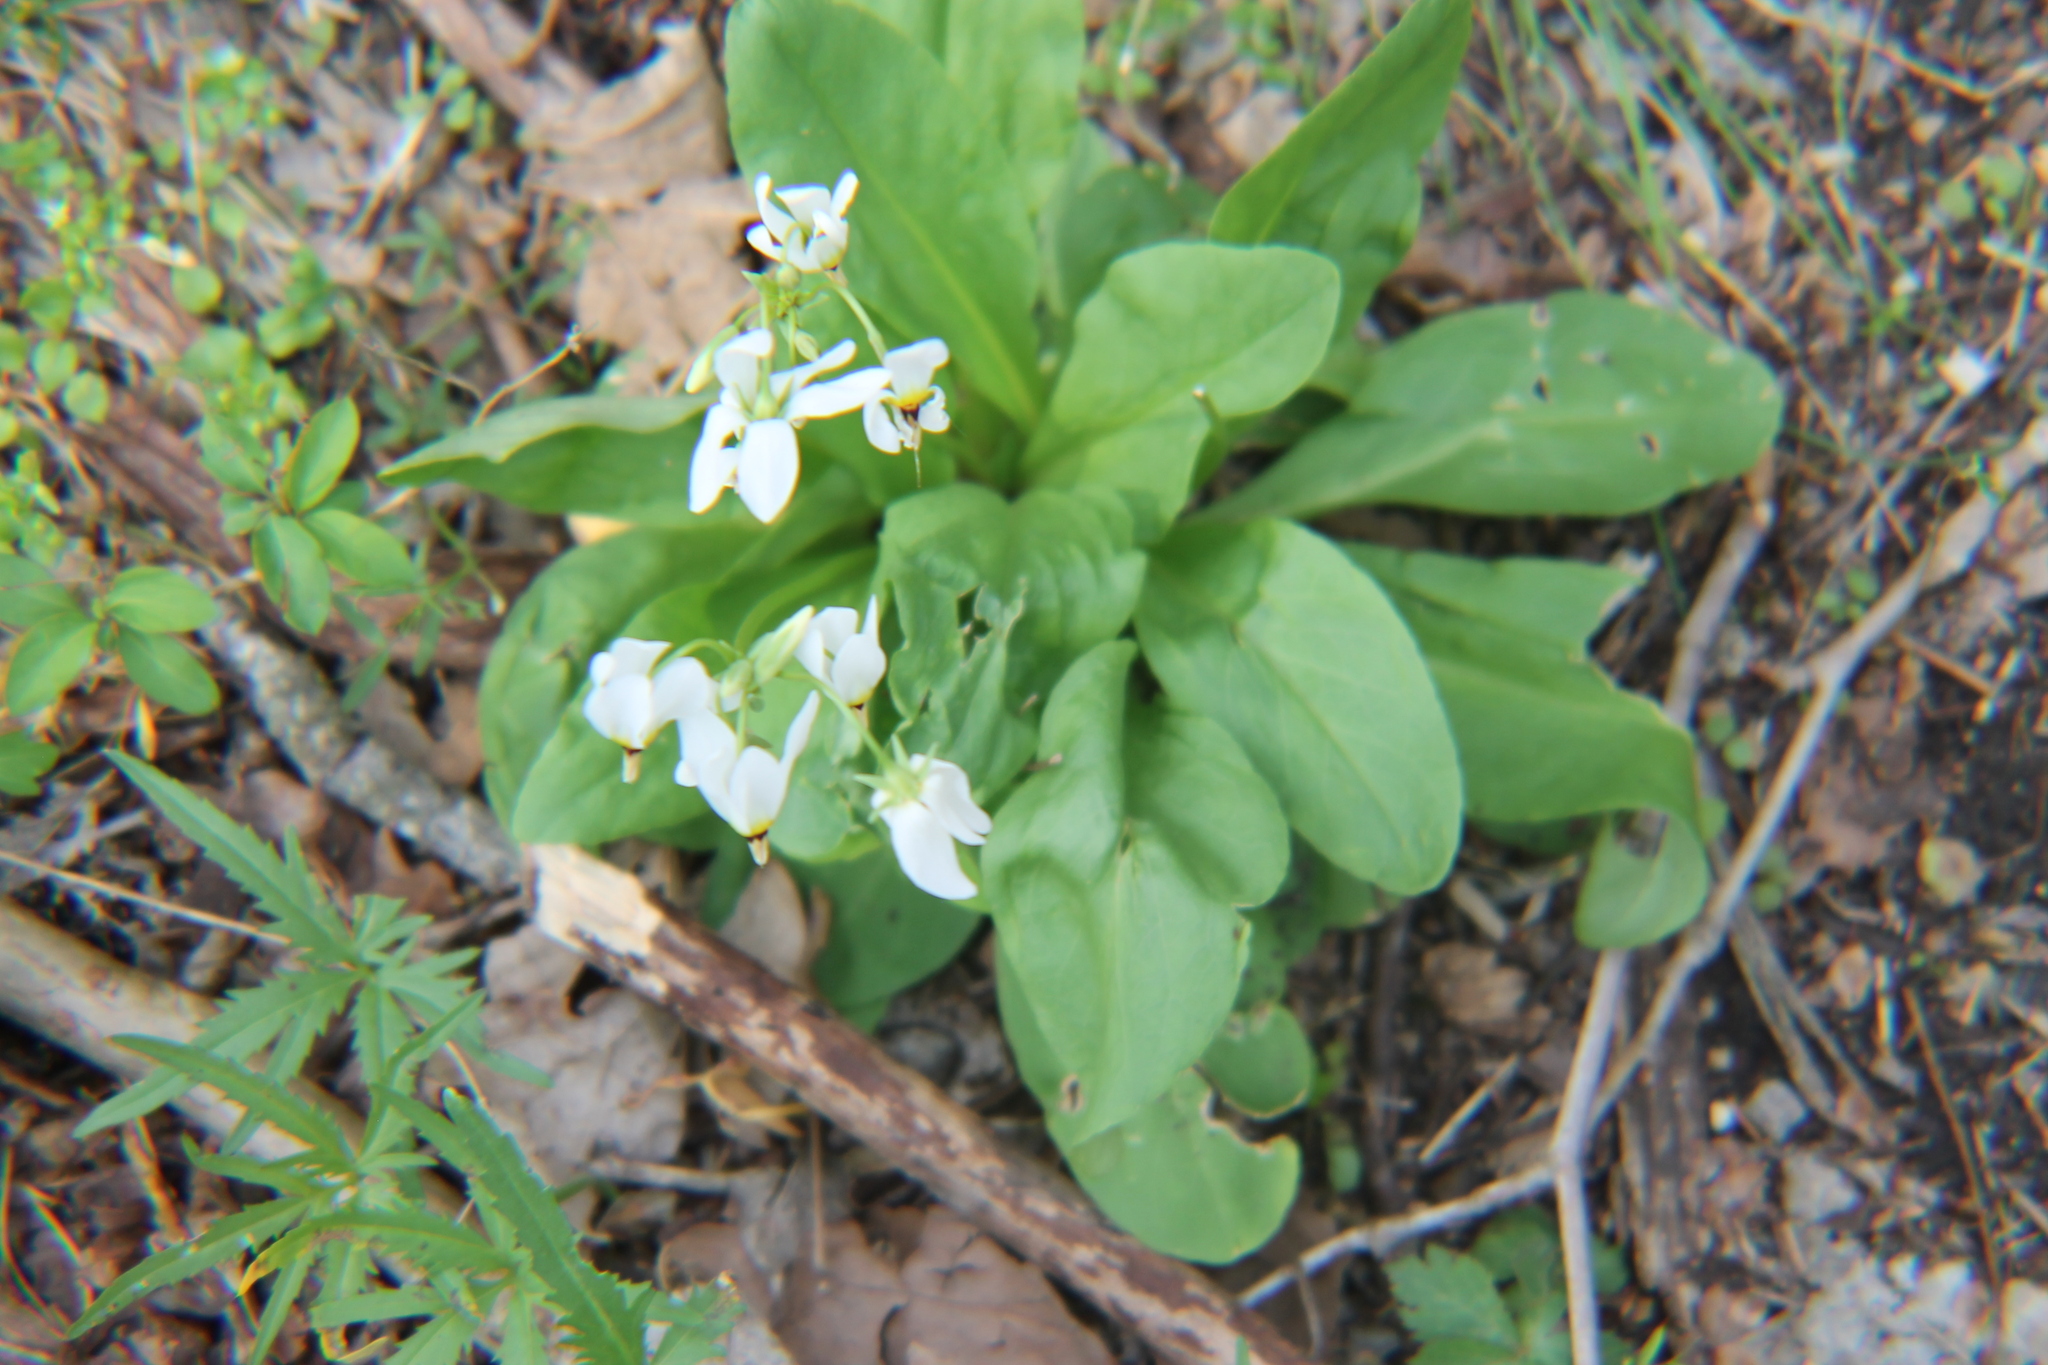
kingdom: Plantae
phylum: Tracheophyta
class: Magnoliopsida
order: Ericales
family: Primulaceae
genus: Dodecatheon
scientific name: Dodecatheon meadia
